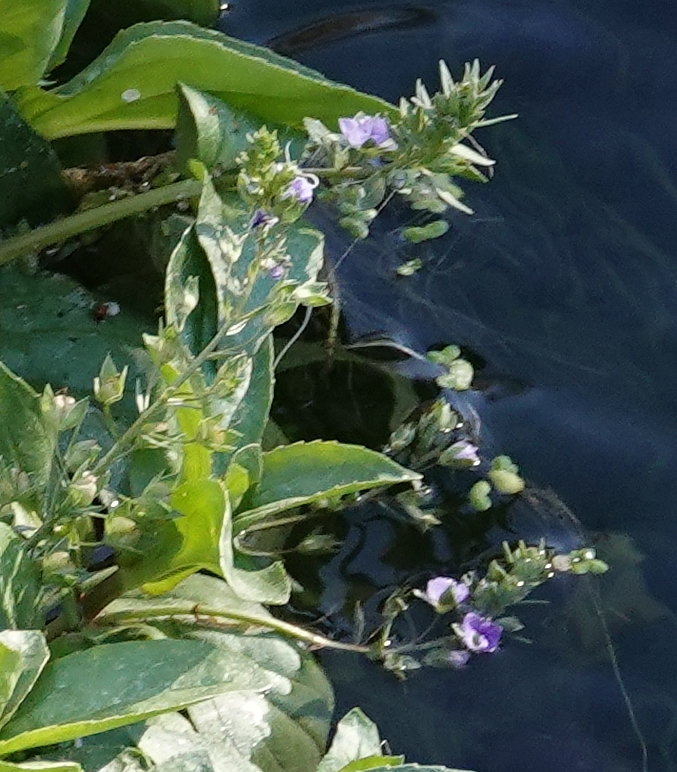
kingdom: Plantae
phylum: Tracheophyta
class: Magnoliopsida
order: Lamiales
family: Plantaginaceae
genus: Veronica
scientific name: Veronica anagallis-aquatica
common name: Water speedwell
